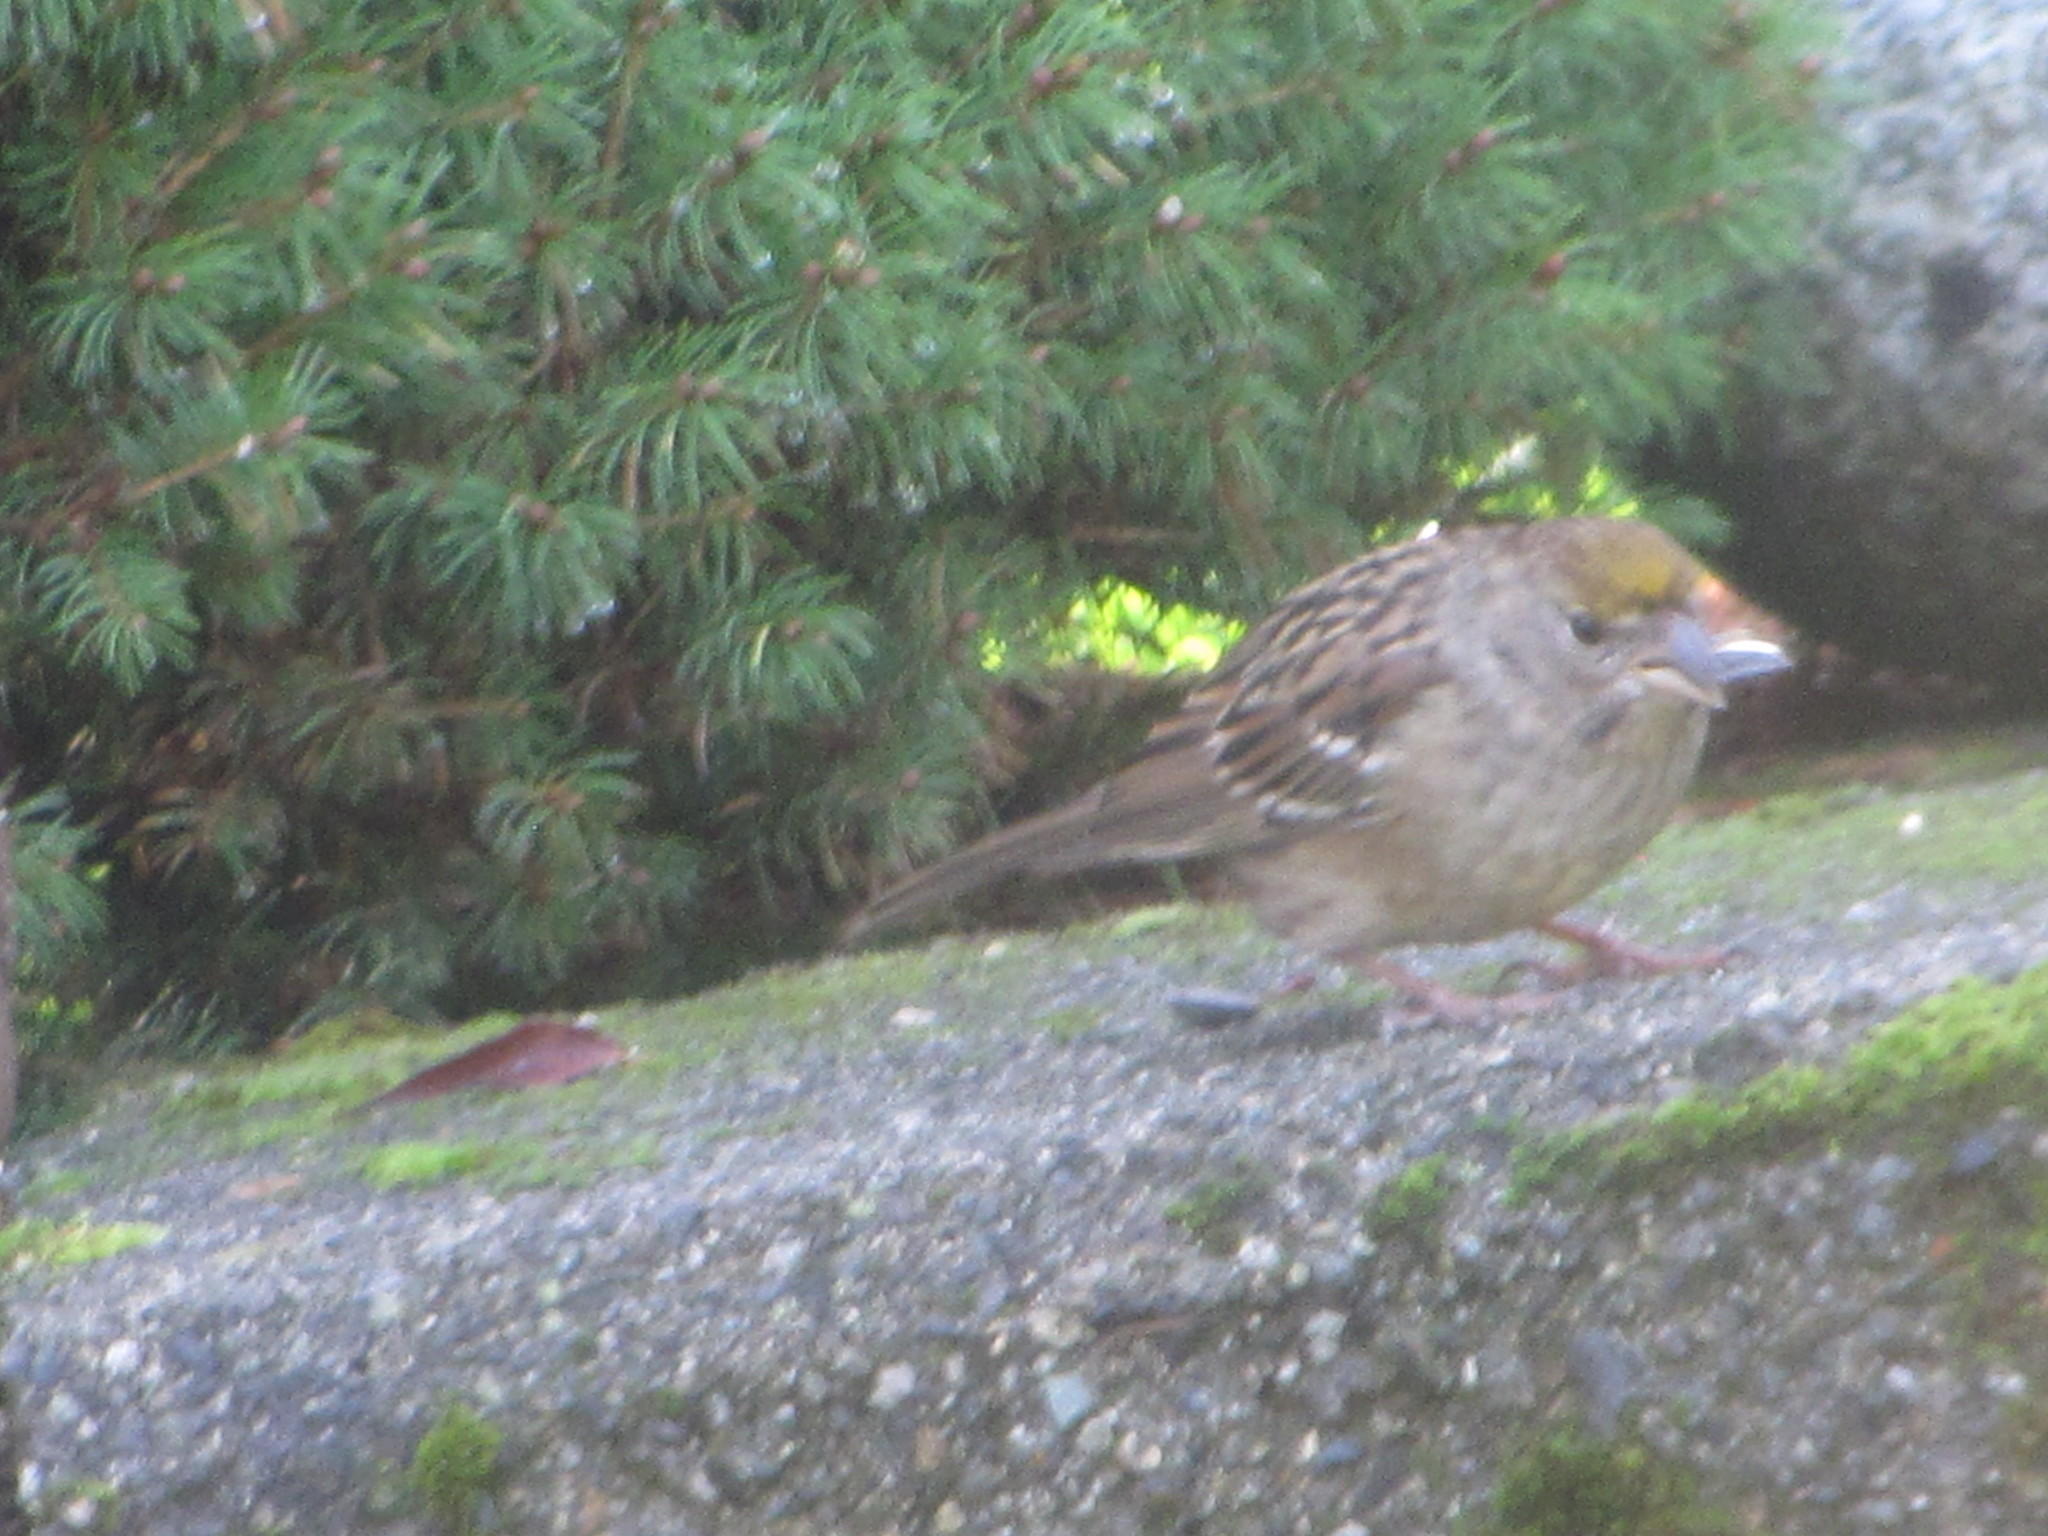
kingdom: Animalia
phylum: Chordata
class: Aves
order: Passeriformes
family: Passerellidae
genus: Zonotrichia
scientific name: Zonotrichia atricapilla
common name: Golden-crowned sparrow
